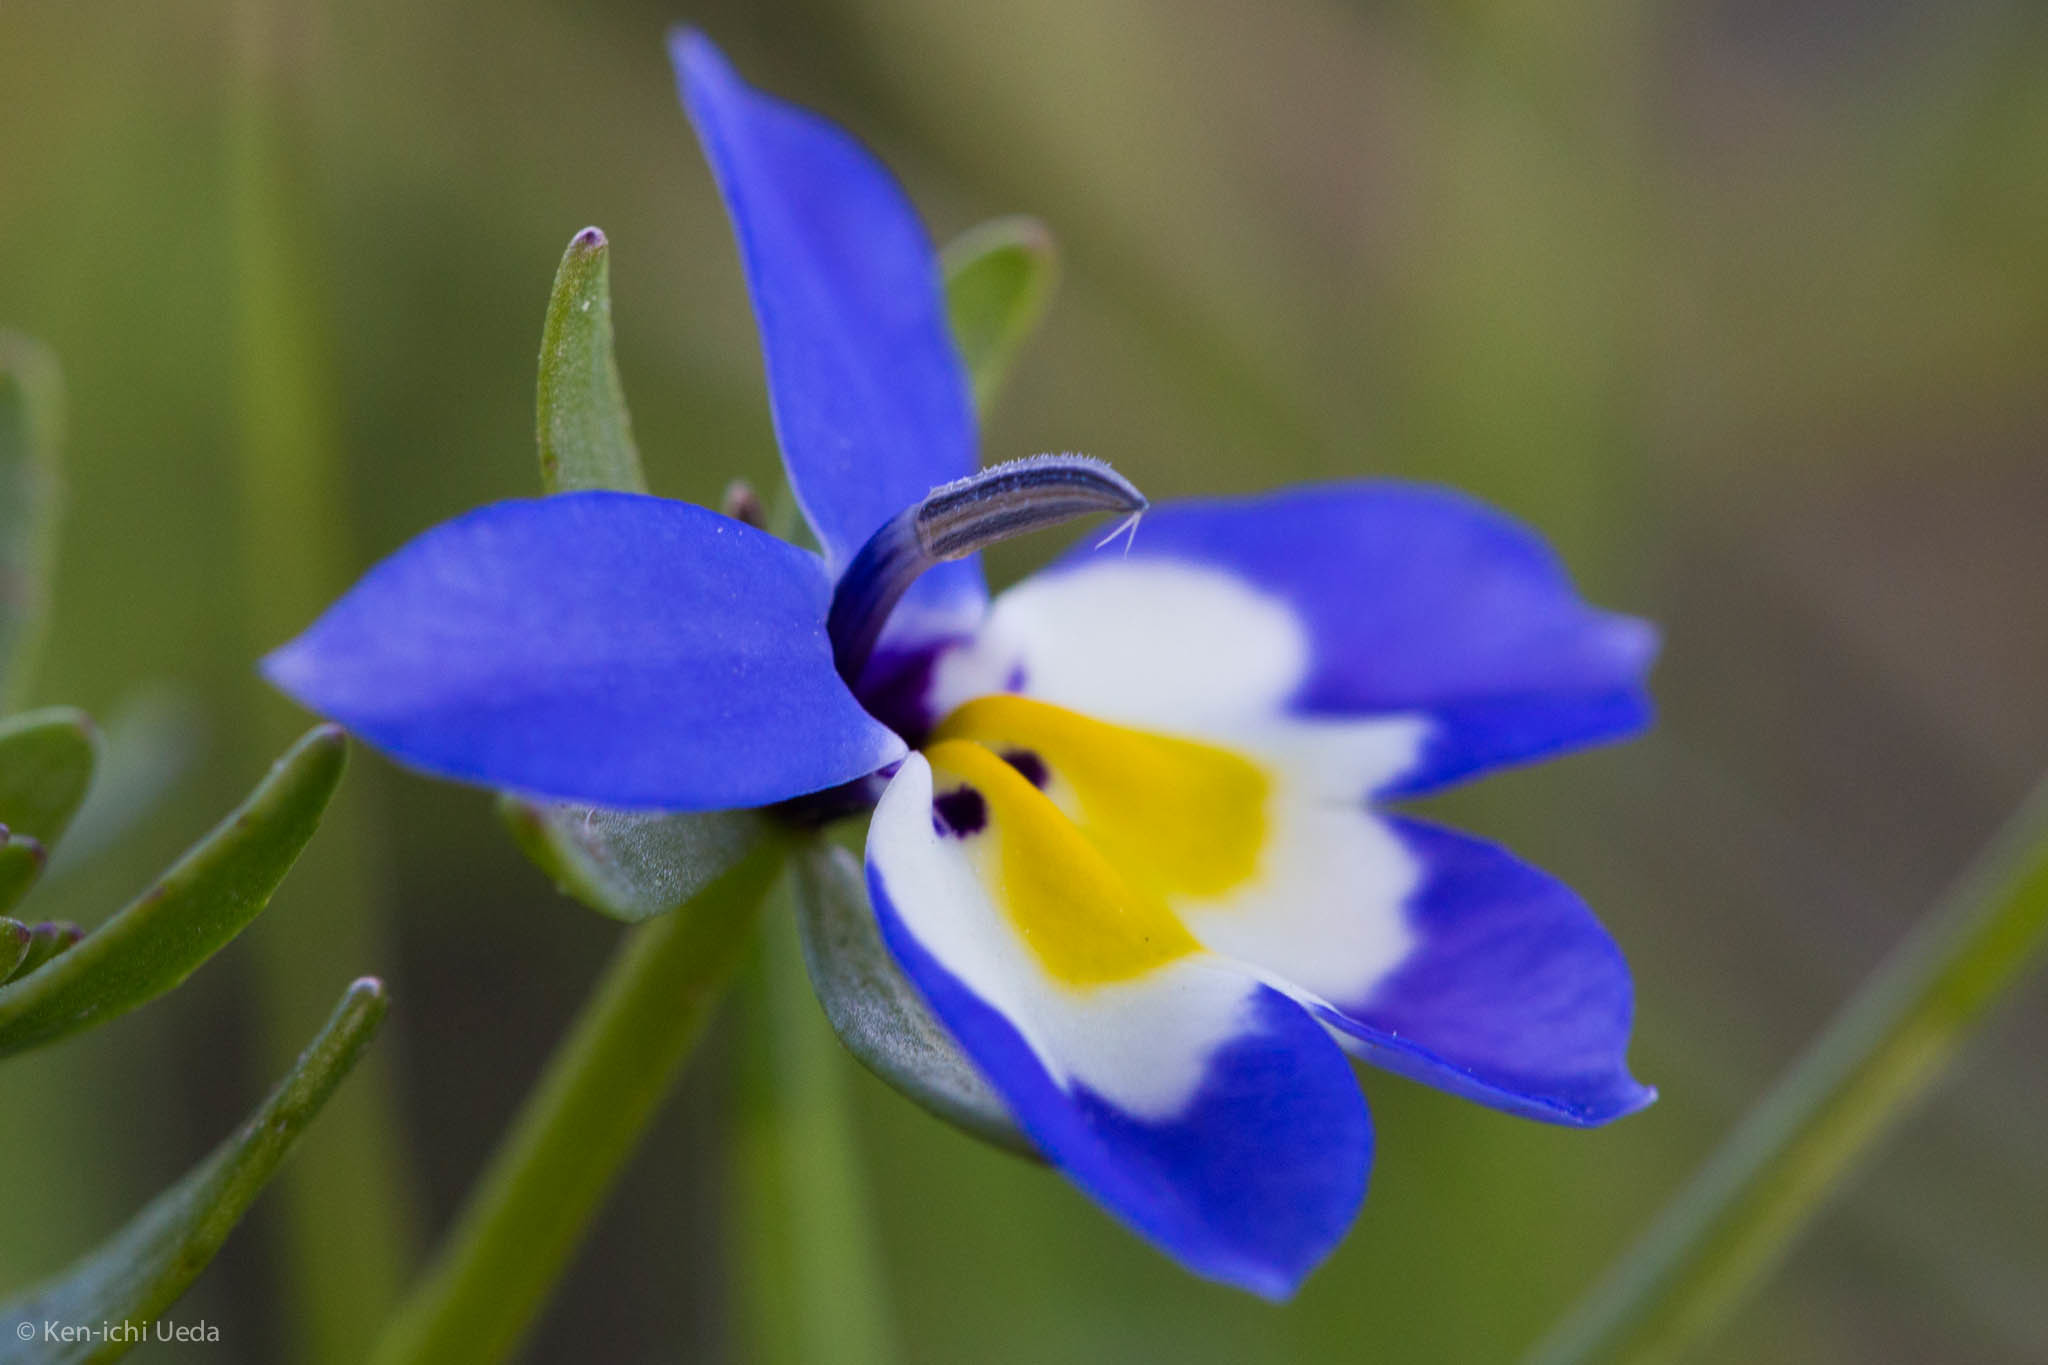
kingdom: Plantae
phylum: Tracheophyta
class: Magnoliopsida
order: Asterales
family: Campanulaceae
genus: Downingia
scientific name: Downingia pulchella
